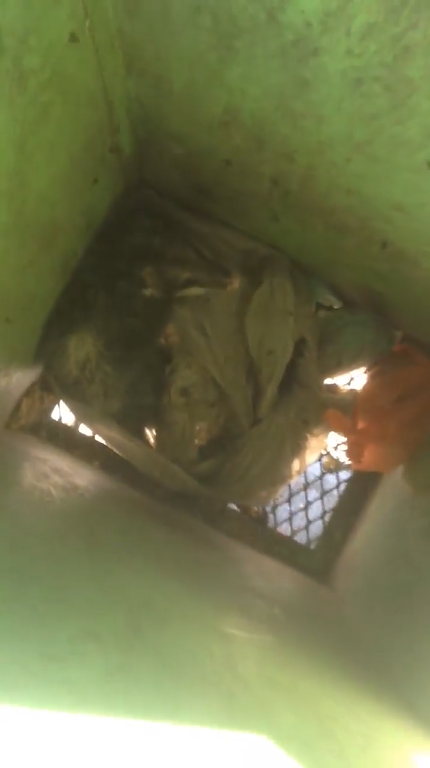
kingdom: Animalia
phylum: Chordata
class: Mammalia
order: Didelphimorphia
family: Didelphidae
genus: Didelphis
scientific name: Didelphis virginiana
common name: Virginia opossum
